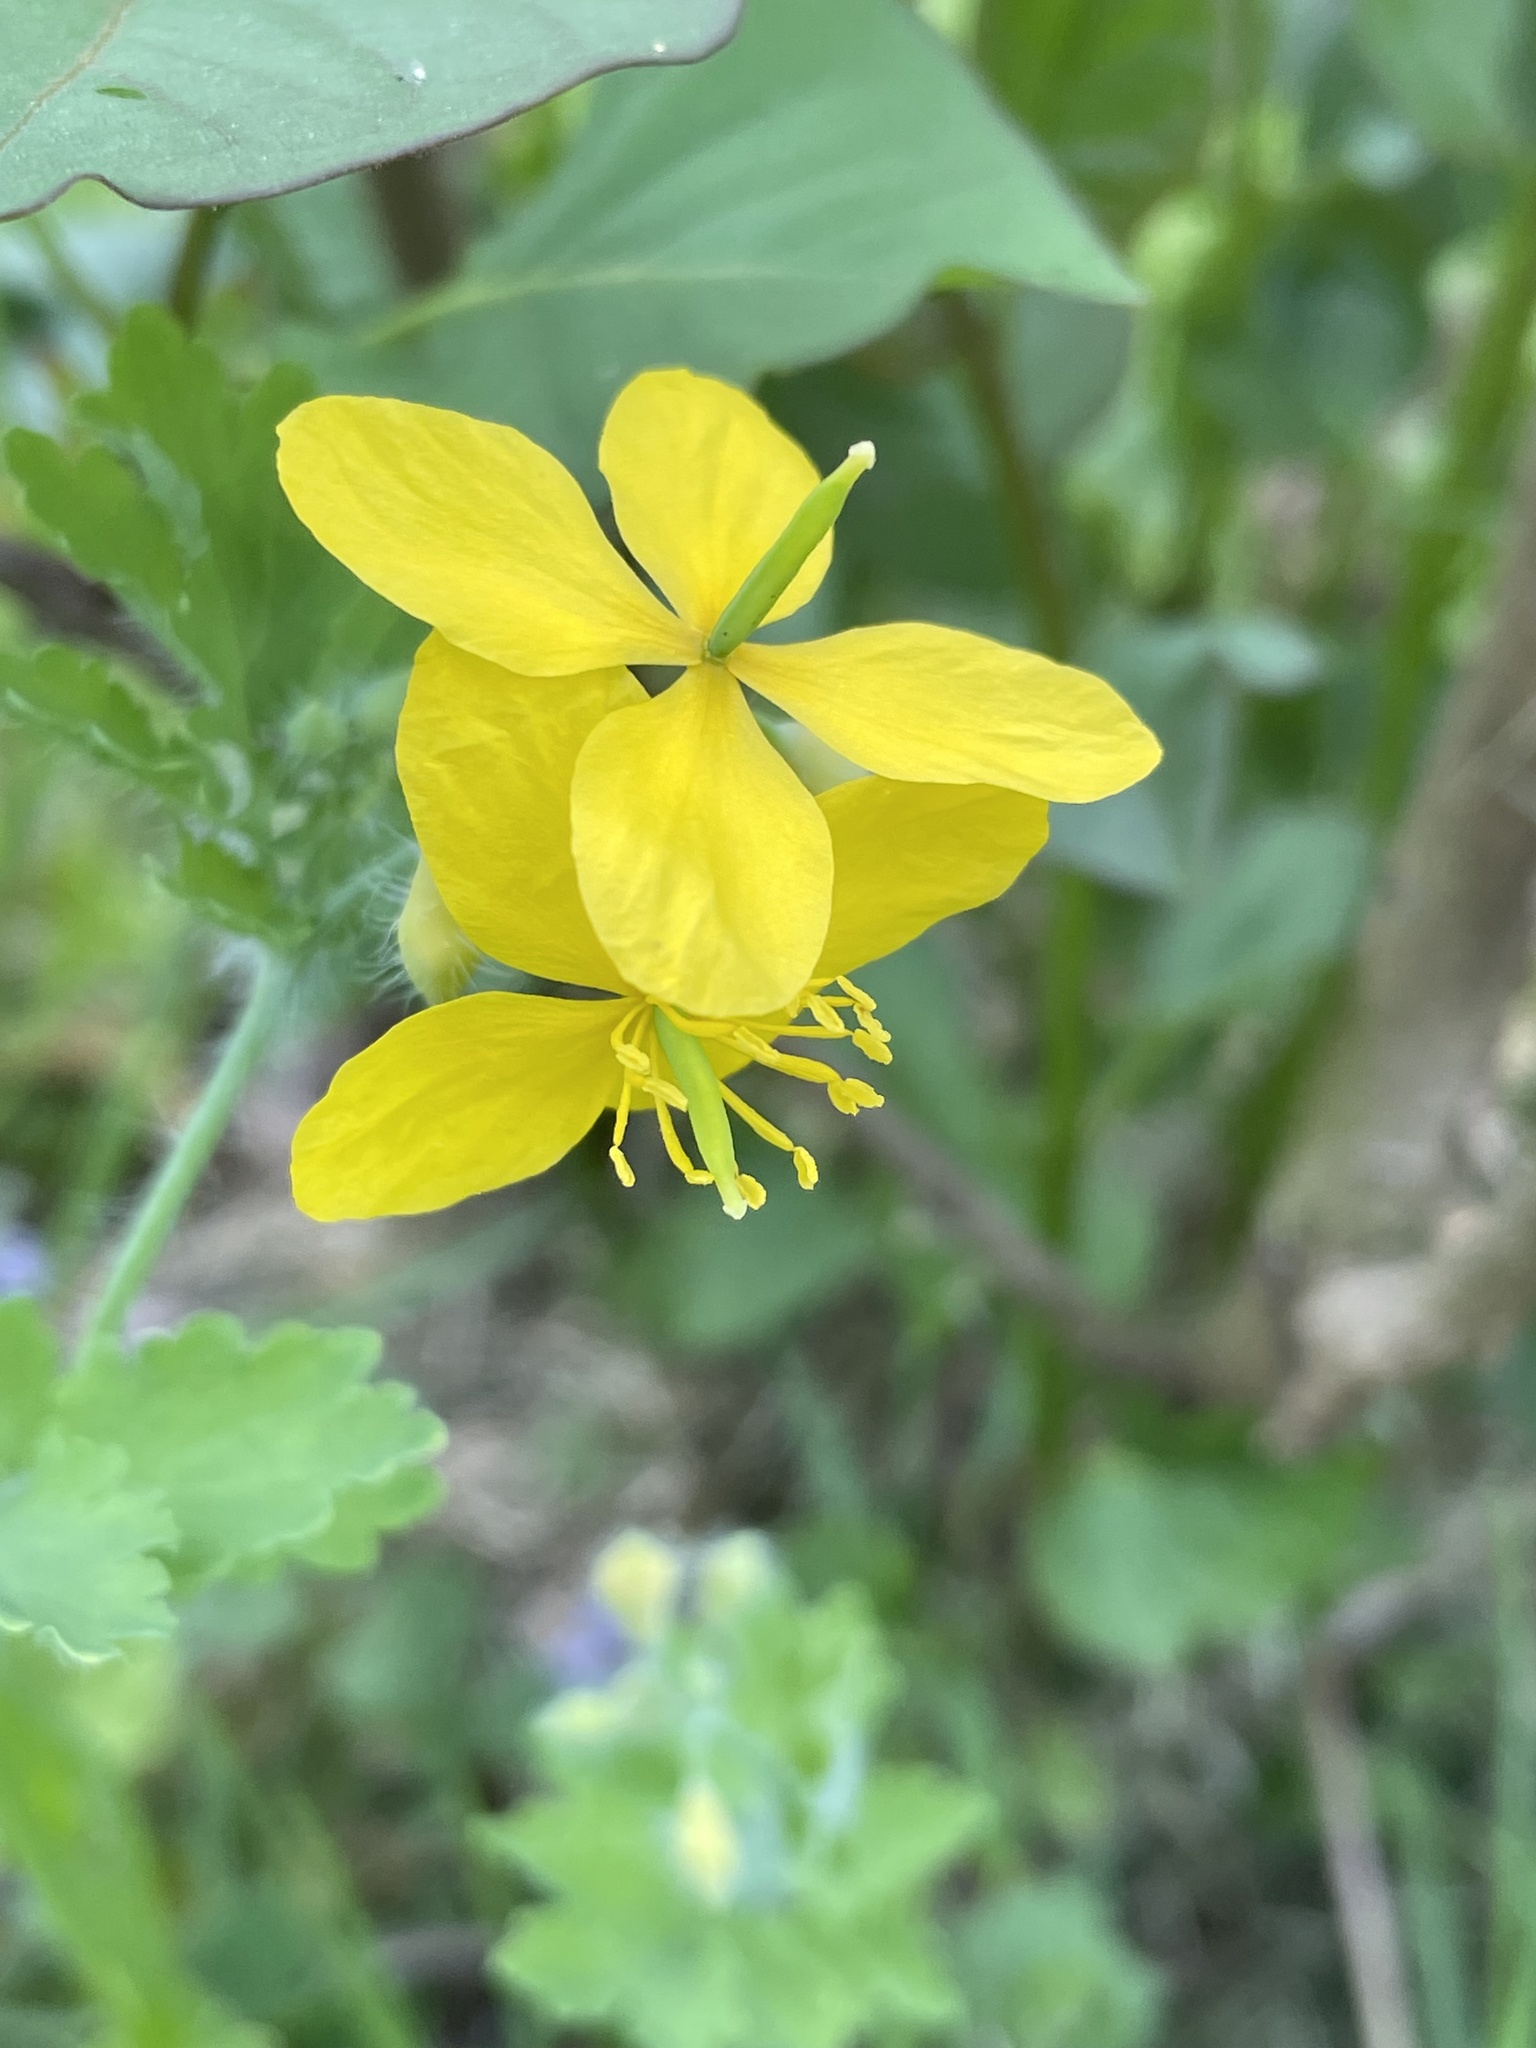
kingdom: Plantae
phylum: Tracheophyta
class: Magnoliopsida
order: Ranunculales
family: Papaveraceae
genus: Chelidonium
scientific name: Chelidonium majus
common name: Greater celandine
